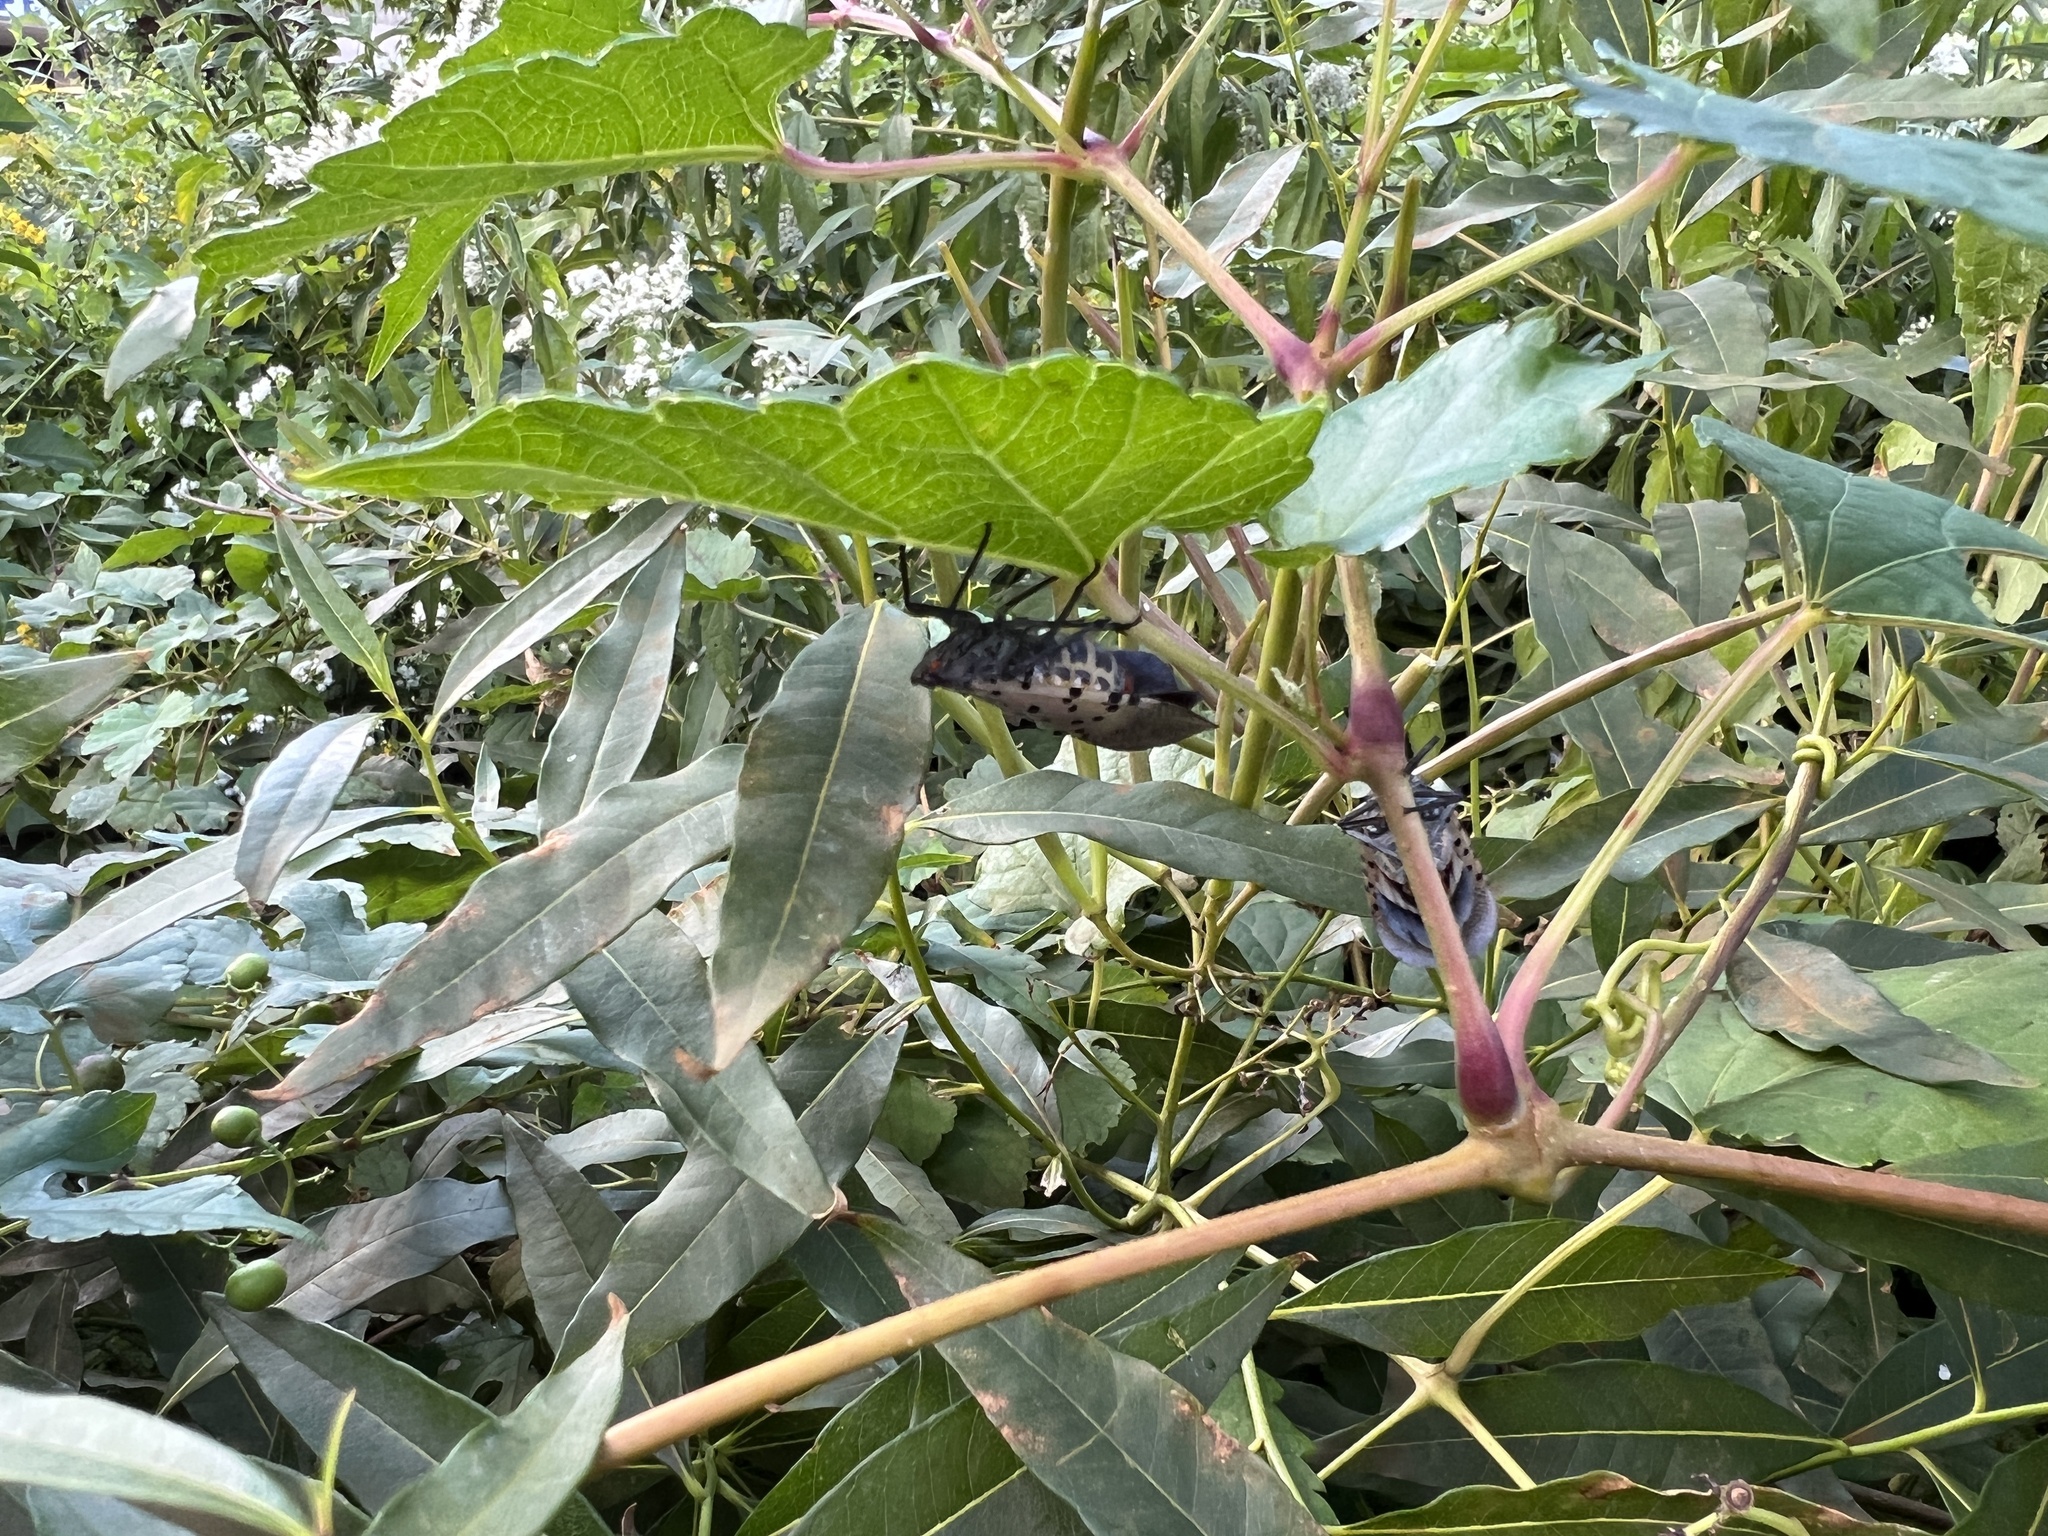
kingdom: Animalia
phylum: Arthropoda
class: Insecta
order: Hemiptera
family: Fulgoridae
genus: Lycorma
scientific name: Lycorma delicatula
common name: Spotted lanternfly
